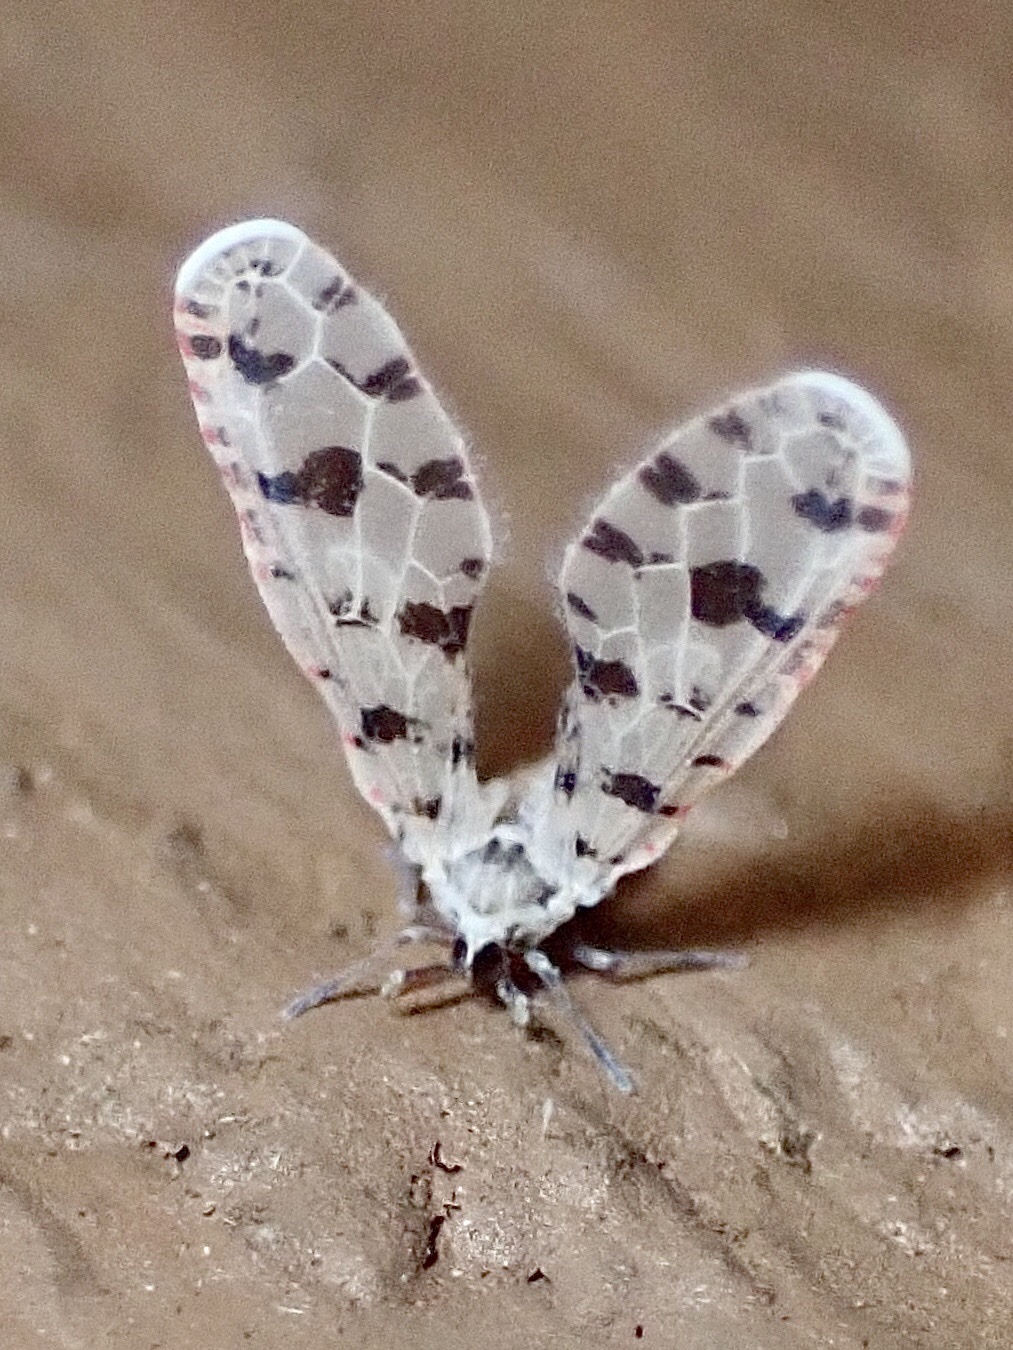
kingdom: Animalia
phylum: Arthropoda
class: Insecta
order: Hemiptera
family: Derbidae
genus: Sikaiana
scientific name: Sikaiana harti
